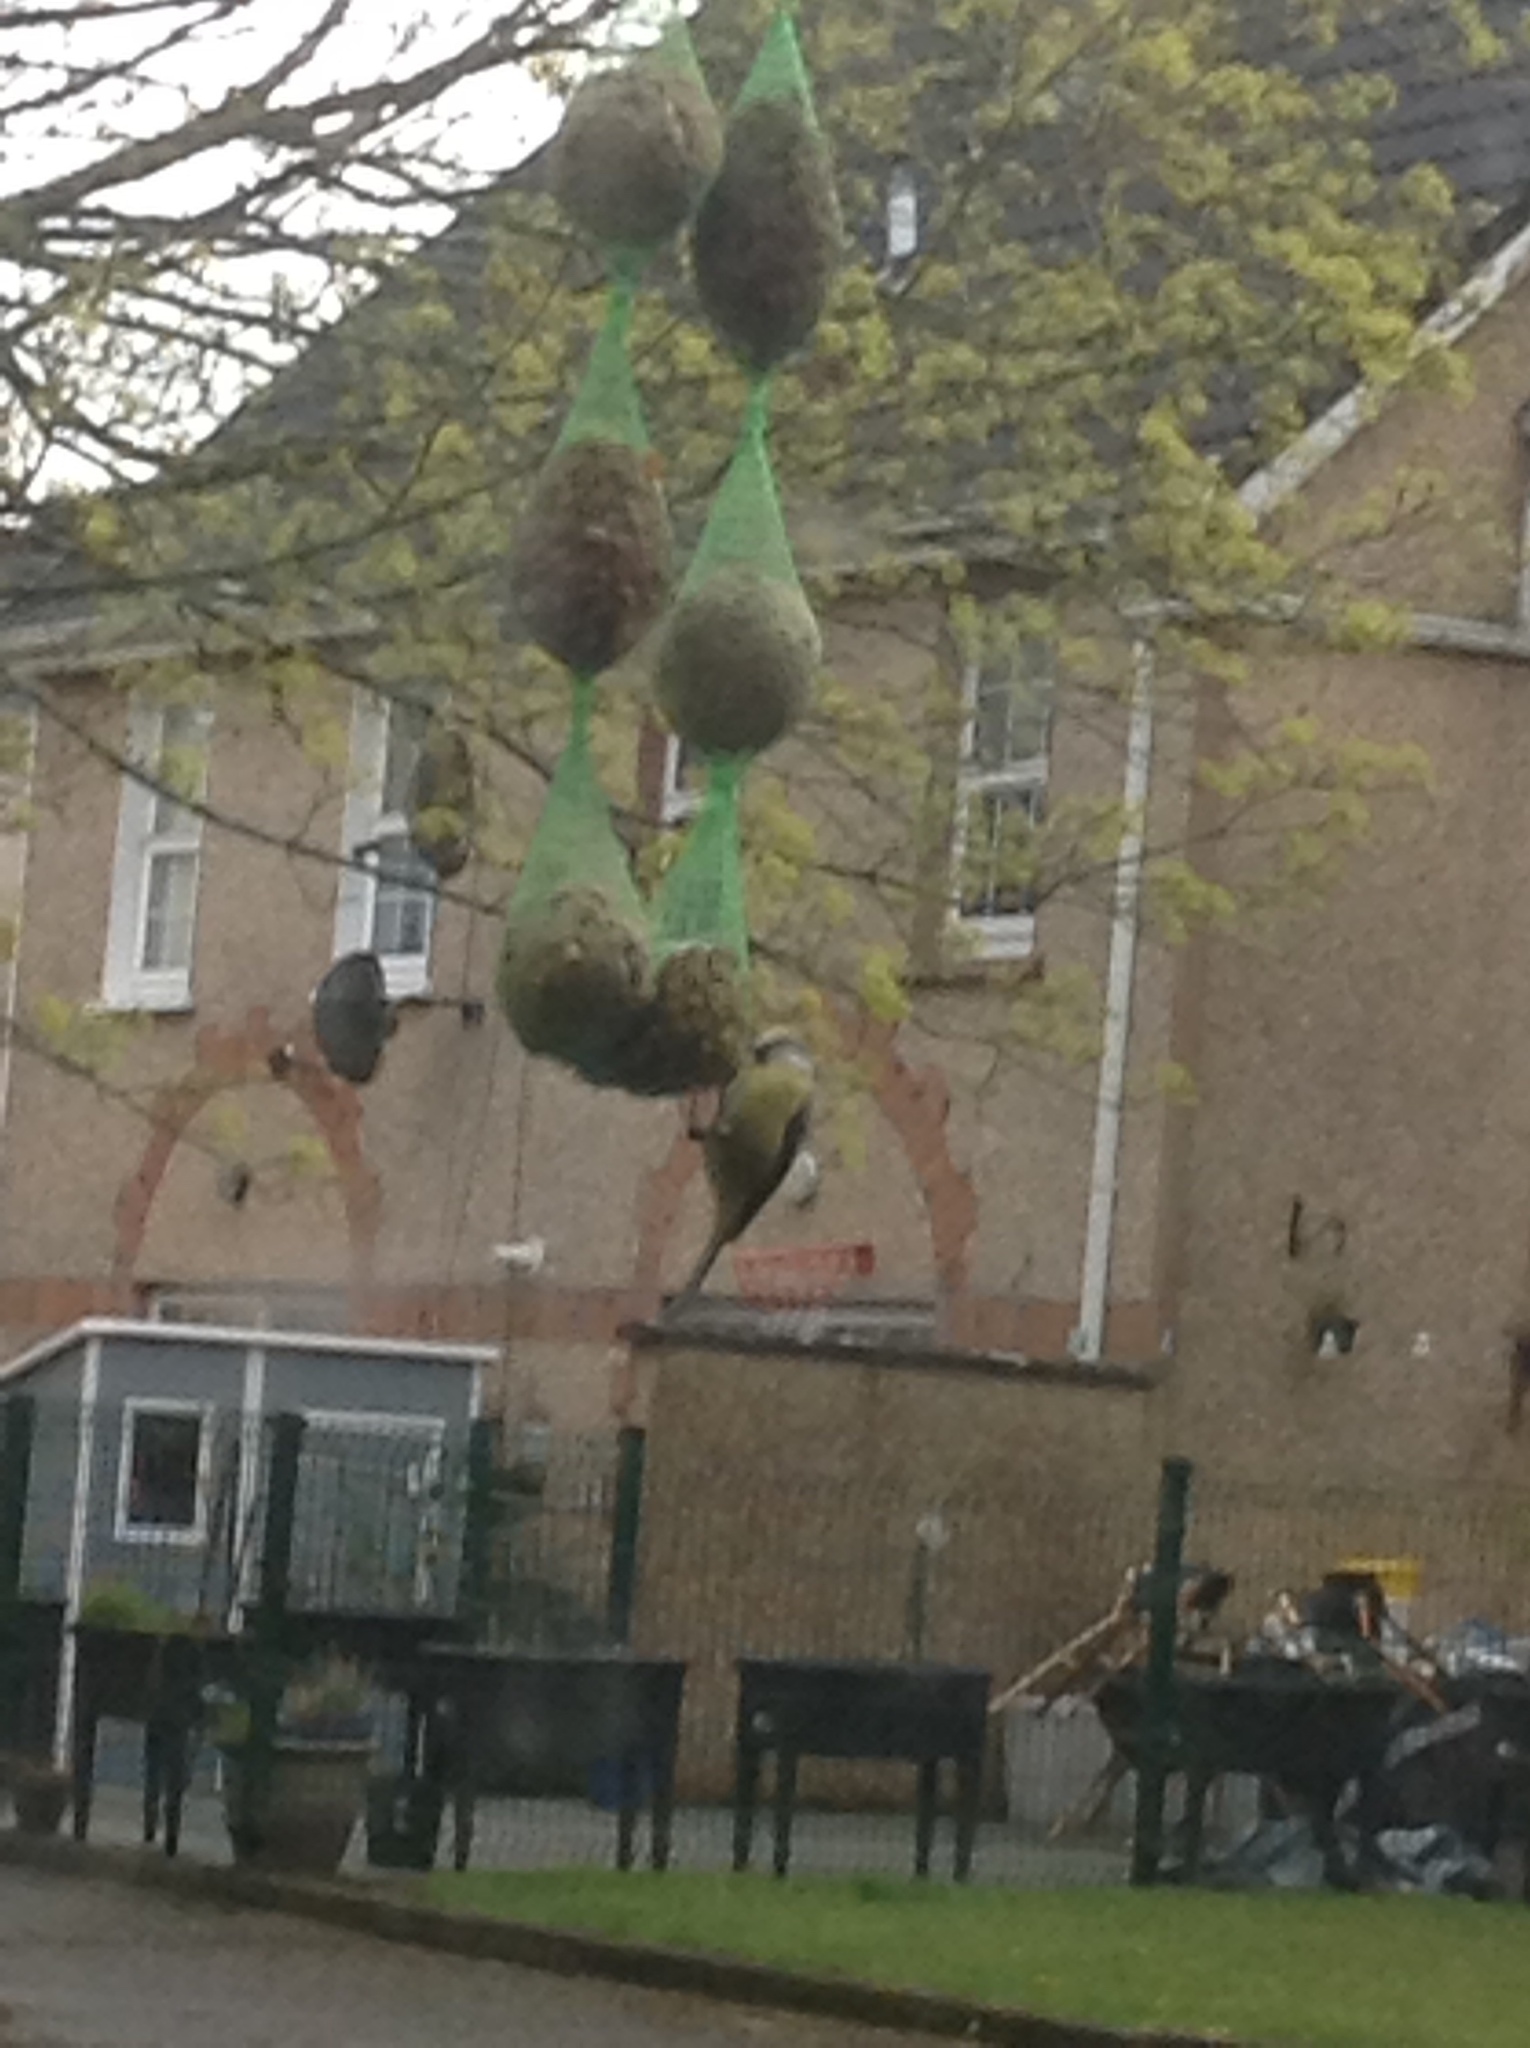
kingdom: Animalia
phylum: Chordata
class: Aves
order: Passeriformes
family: Paridae
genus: Cyanistes
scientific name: Cyanistes caeruleus
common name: Eurasian blue tit
